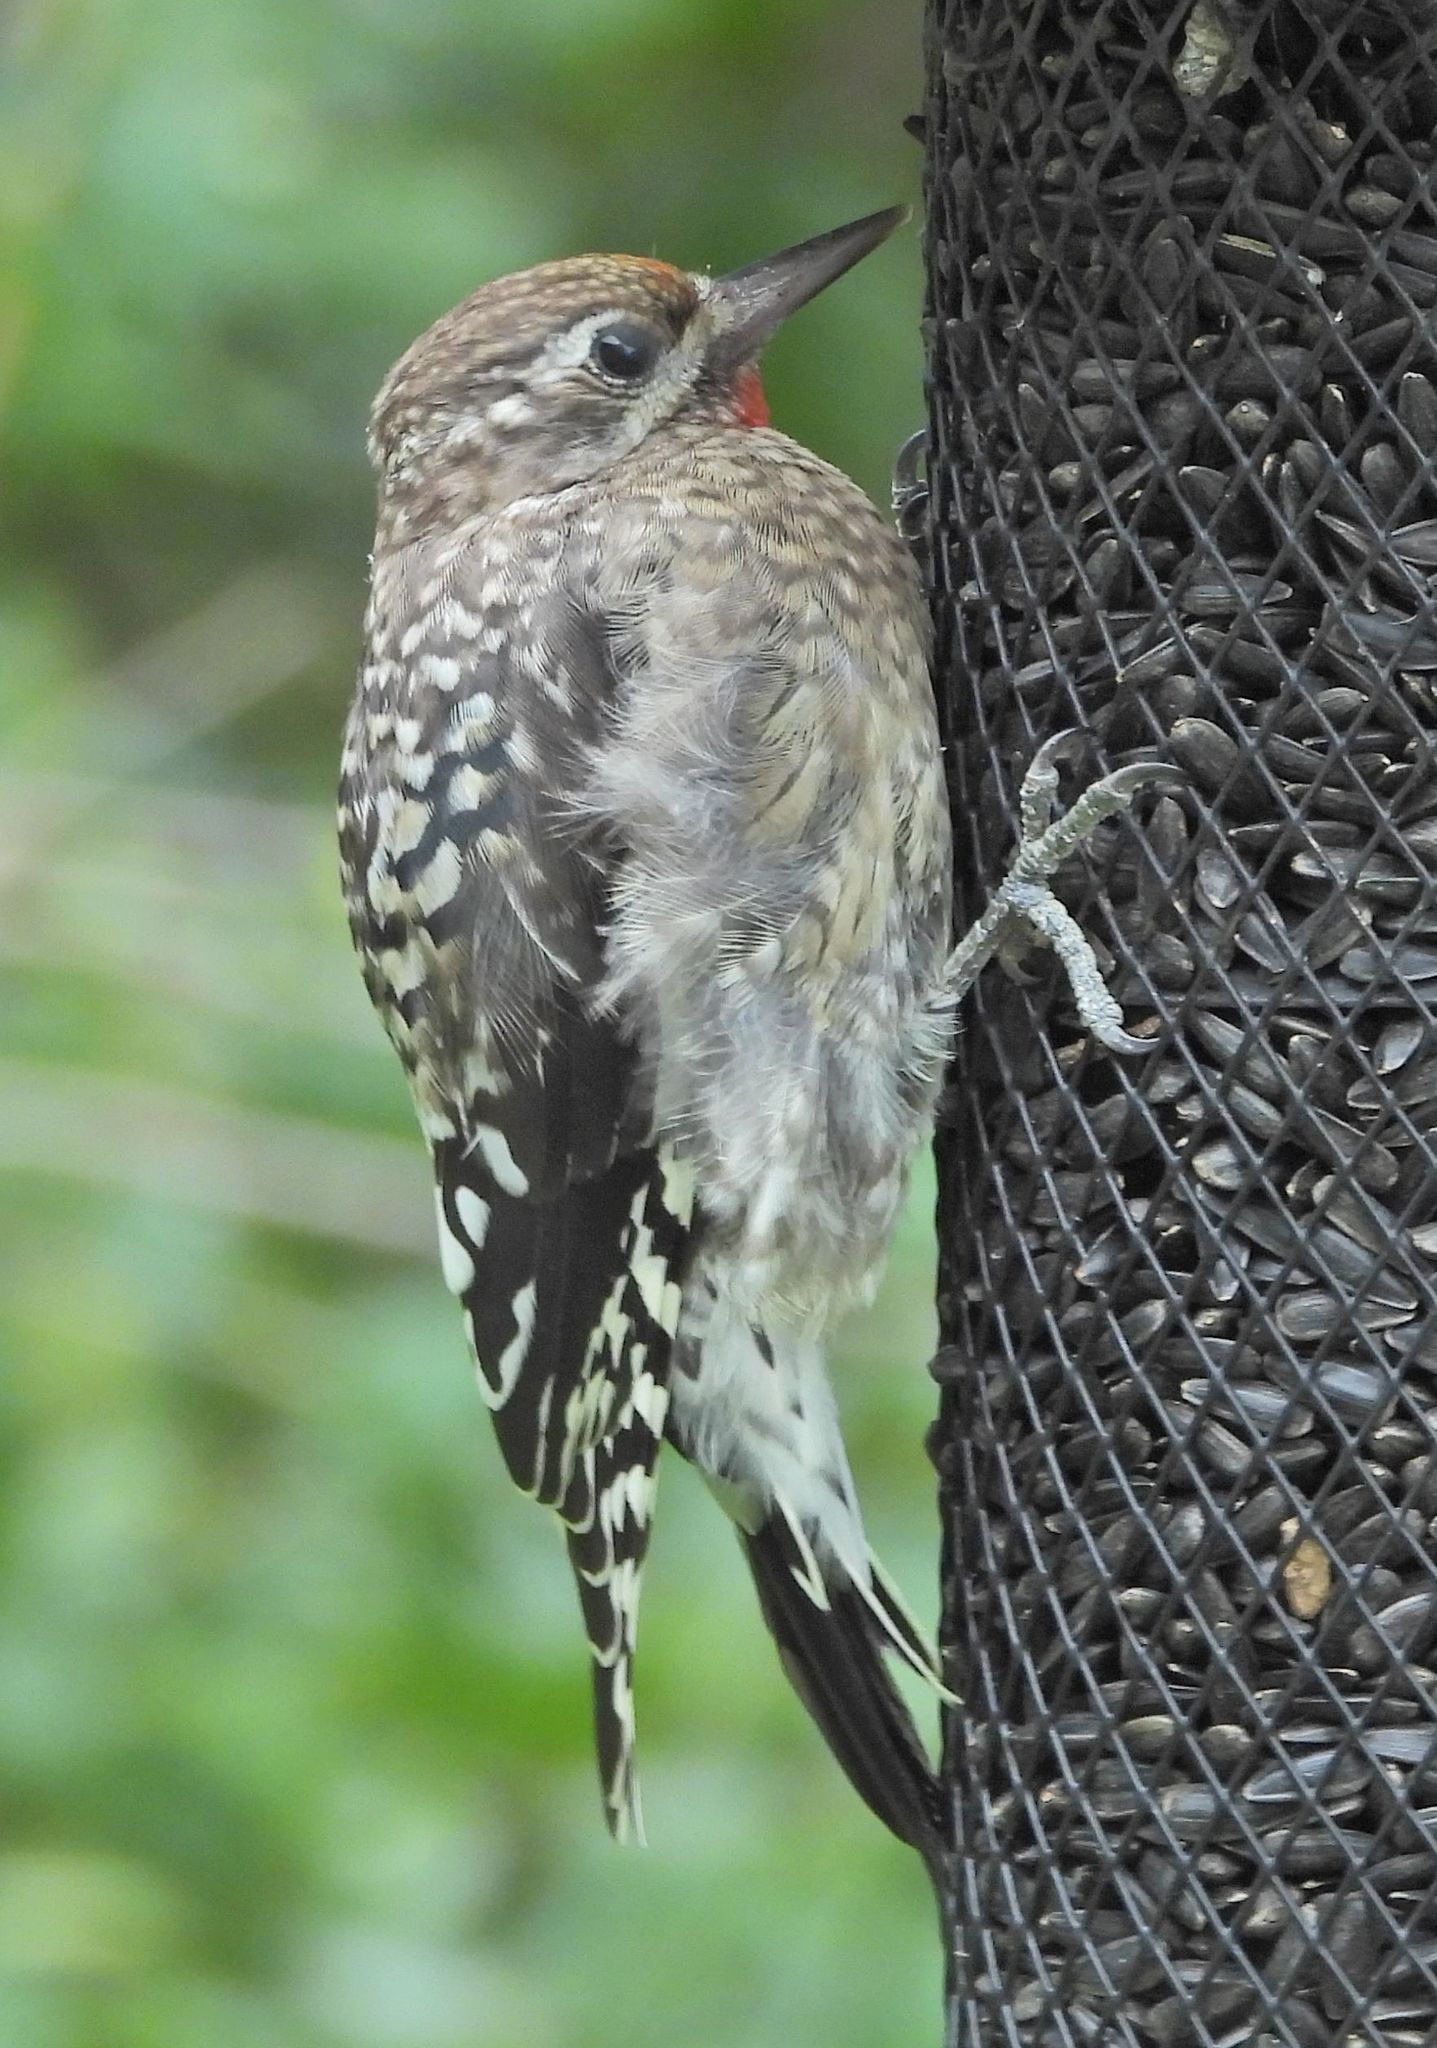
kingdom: Animalia
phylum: Chordata
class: Aves
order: Piciformes
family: Picidae
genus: Sphyrapicus
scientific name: Sphyrapicus varius
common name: Yellow-bellied sapsucker
